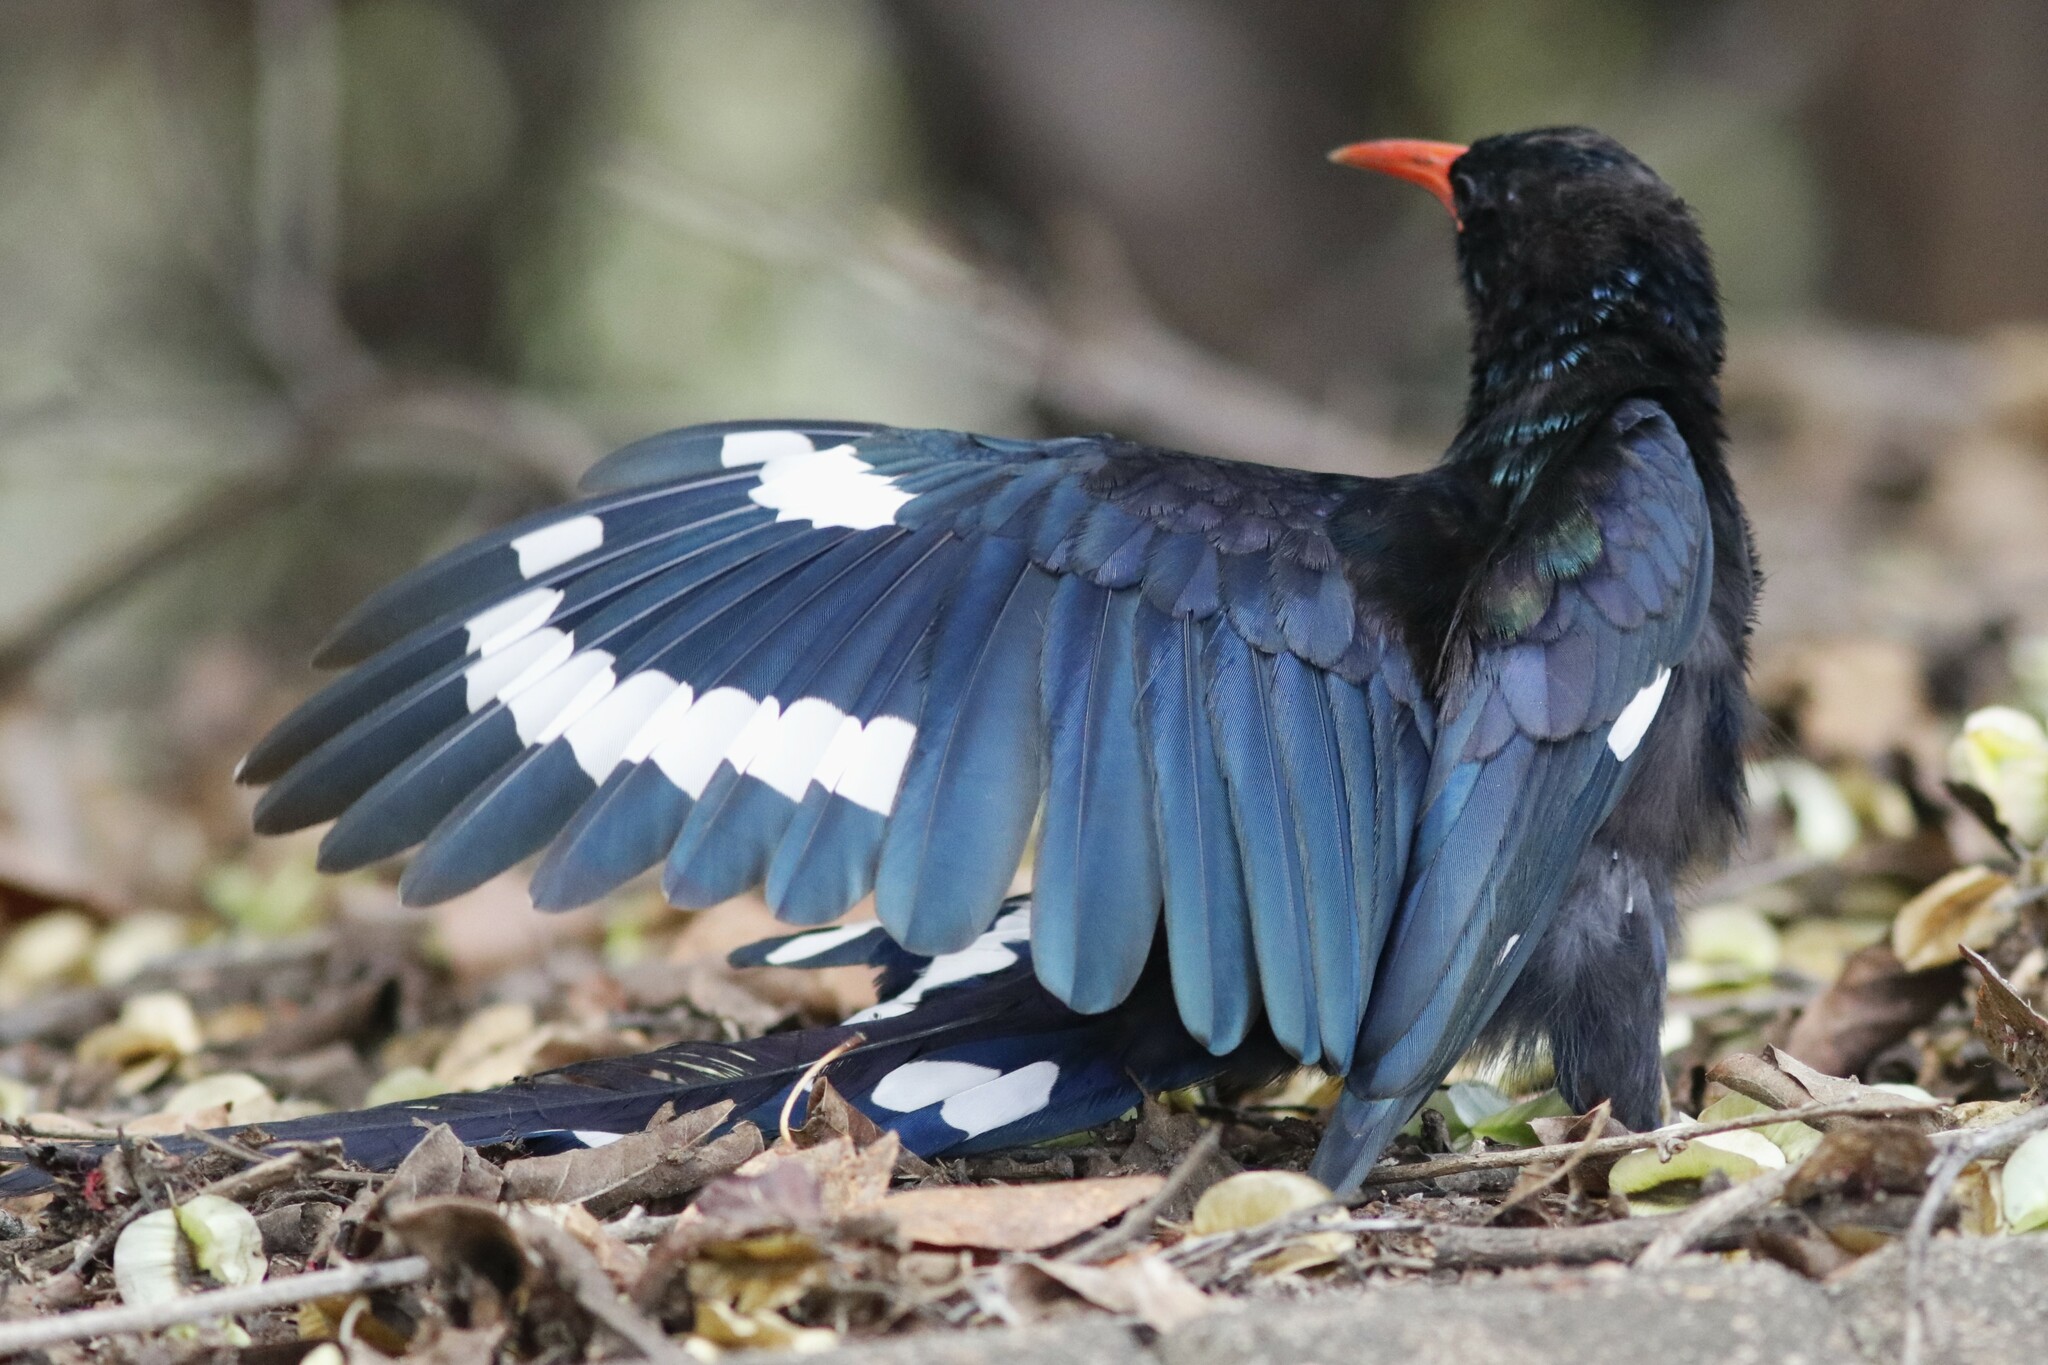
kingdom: Animalia
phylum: Chordata
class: Aves
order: Bucerotiformes
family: Phoeniculidae
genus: Phoeniculus
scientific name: Phoeniculus purpureus
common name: Green woodhoopoe
